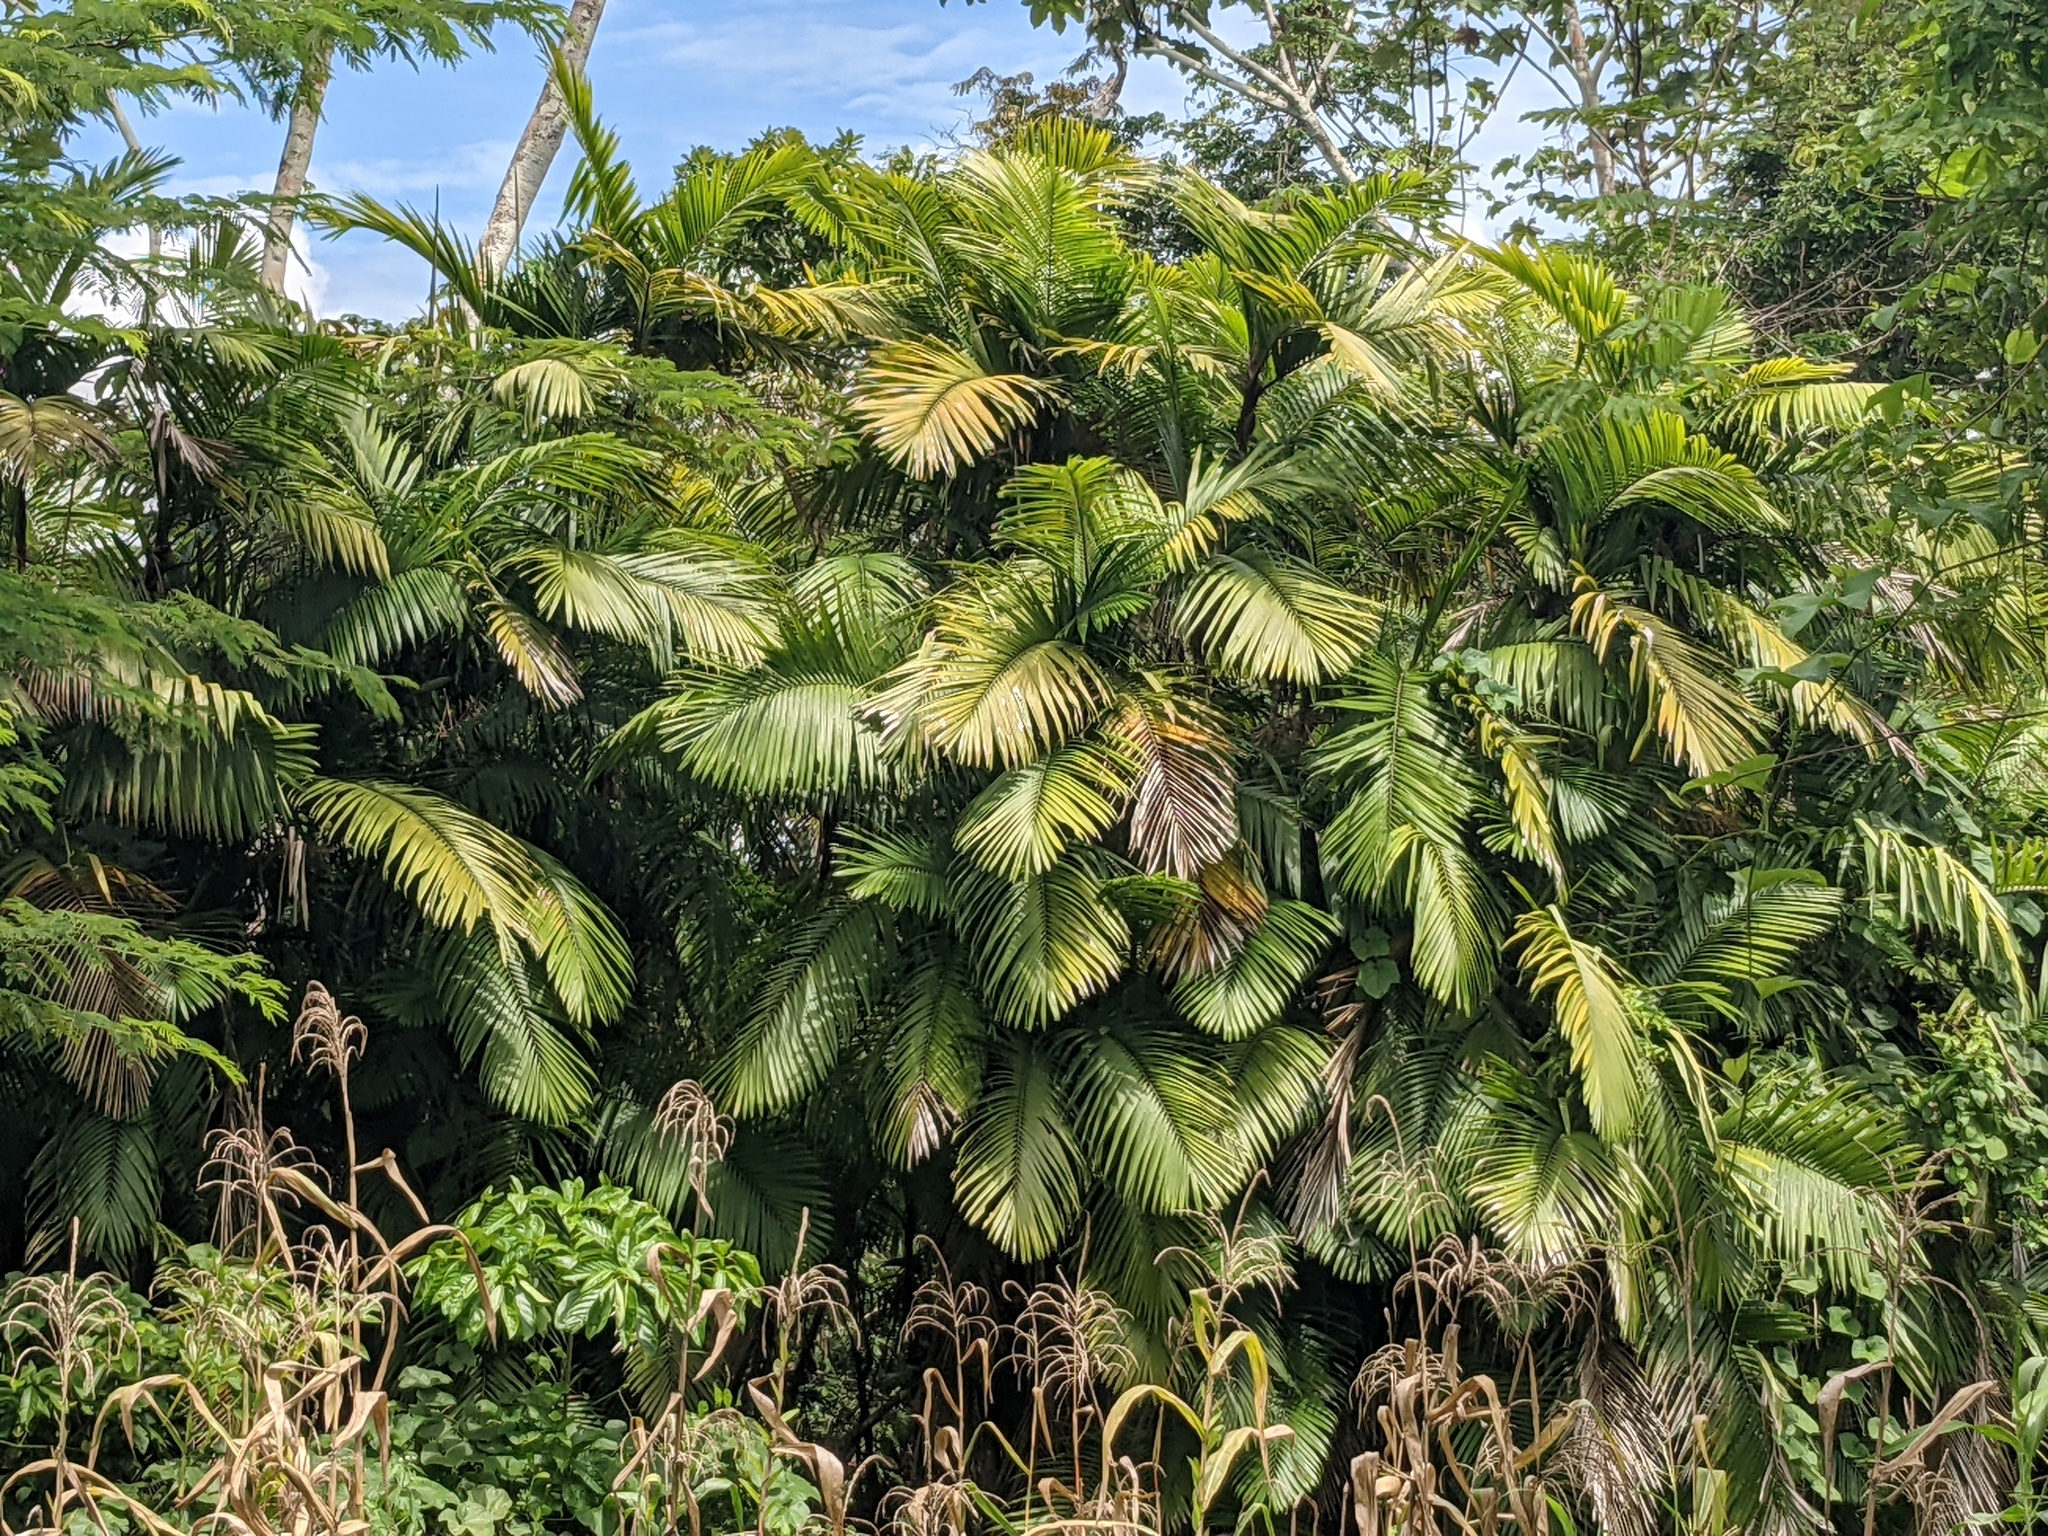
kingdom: Plantae
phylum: Tracheophyta
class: Liliopsida
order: Arecales
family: Arecaceae
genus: Bactris
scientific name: Bactris major
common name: Beach palm
